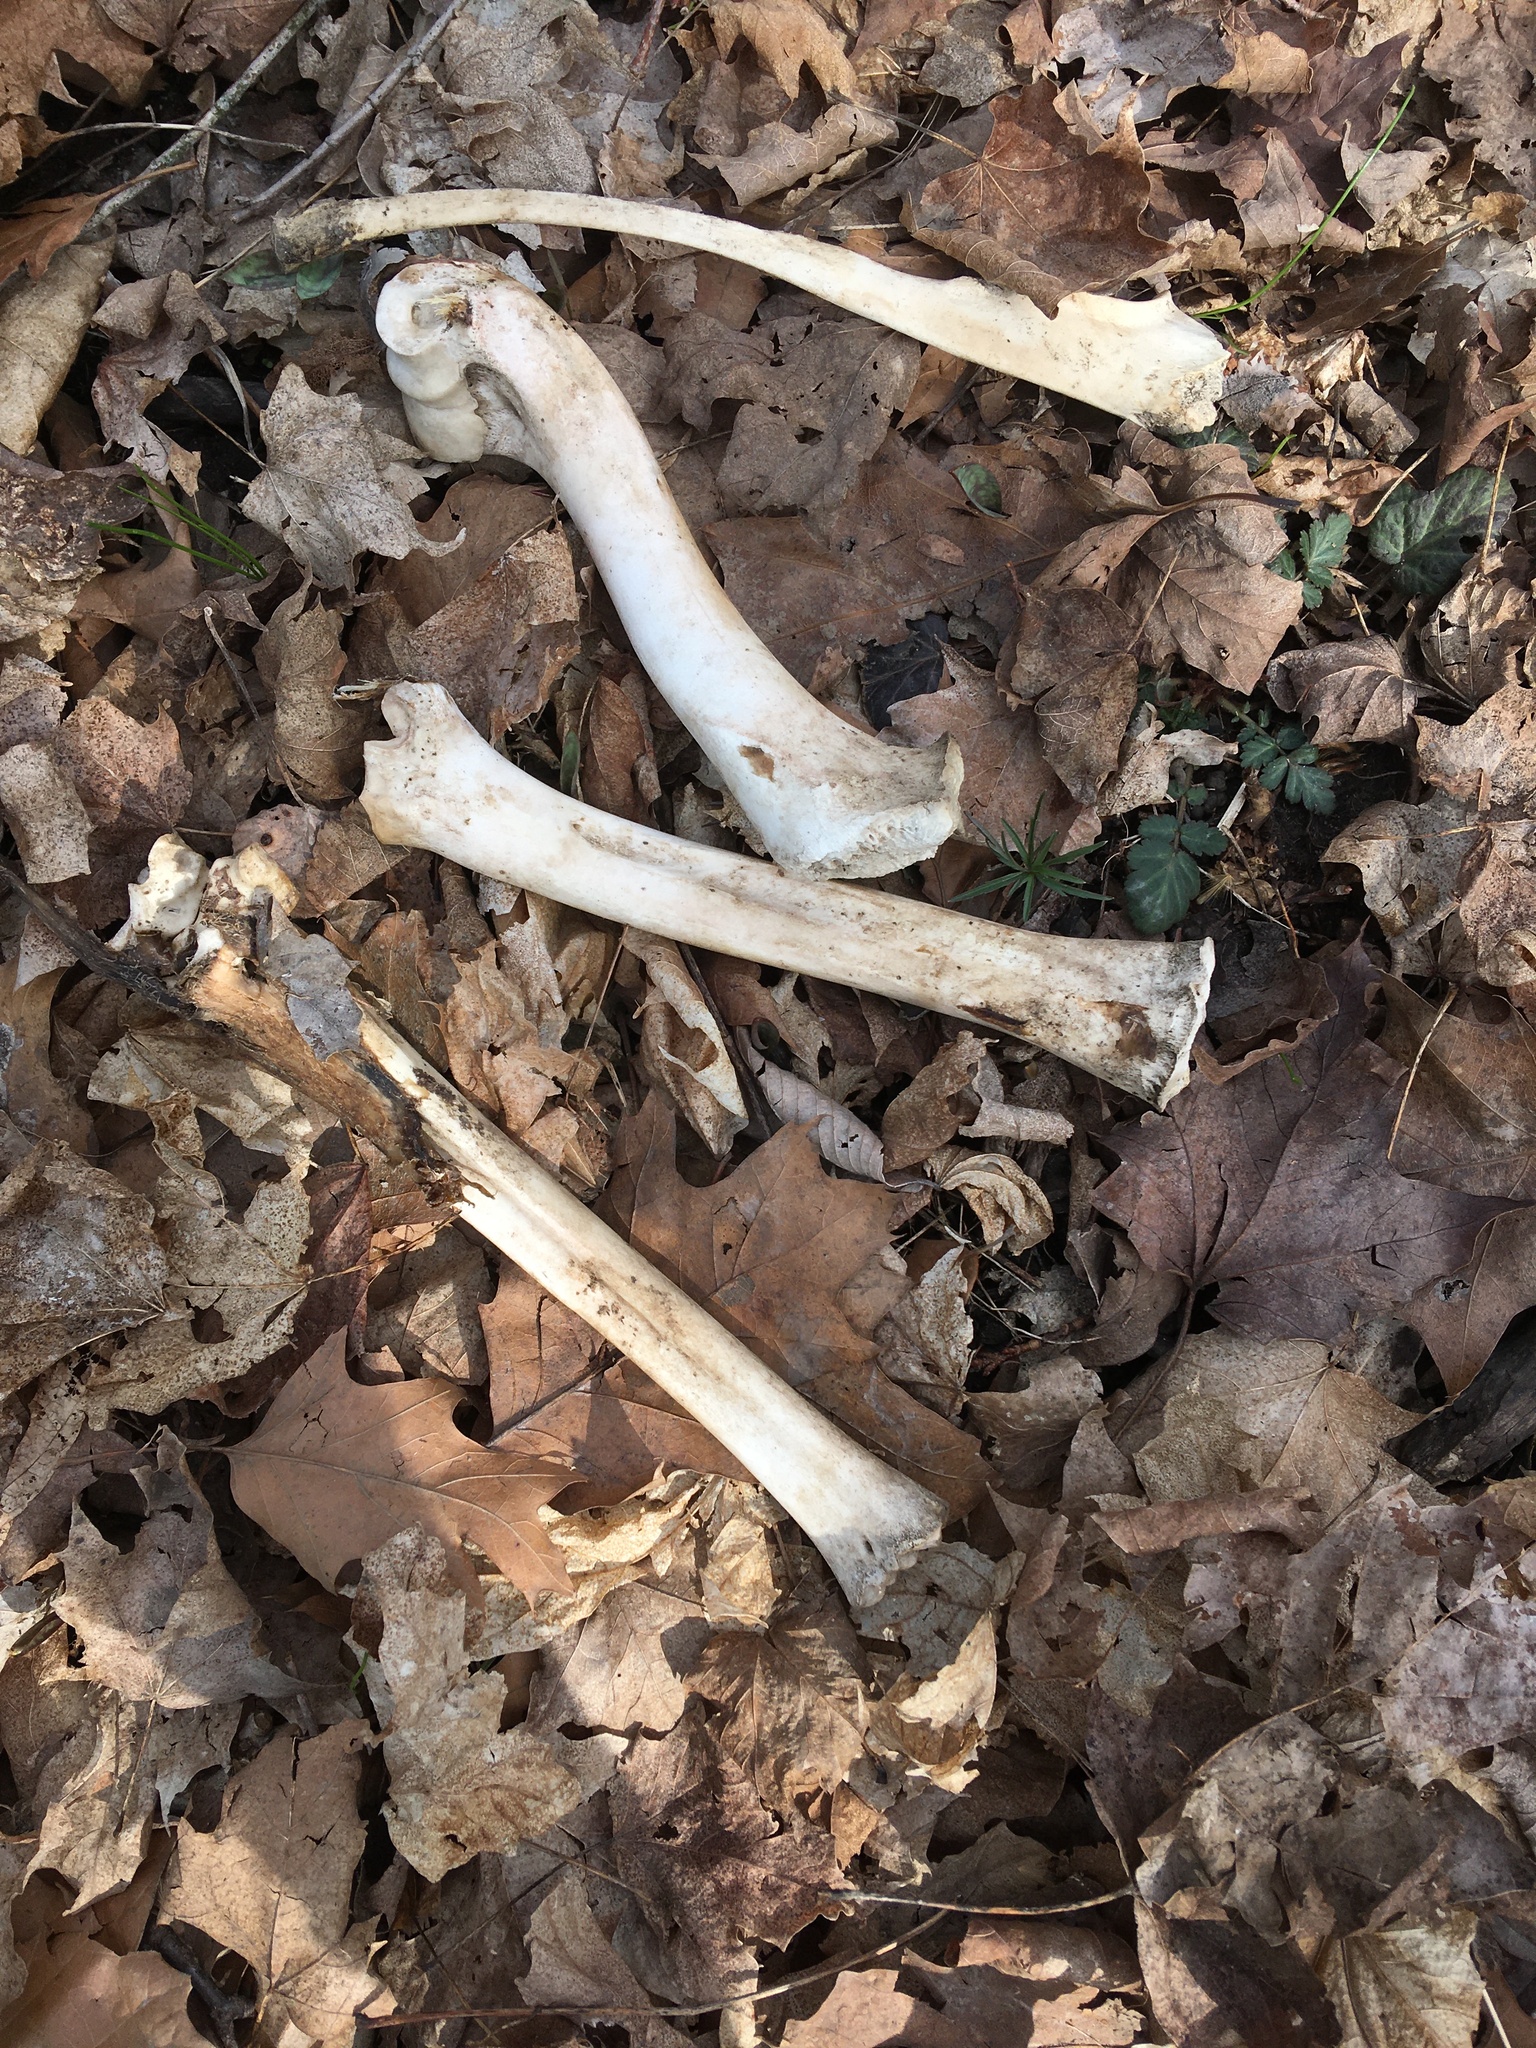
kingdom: Animalia
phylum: Chordata
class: Mammalia
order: Artiodactyla
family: Cervidae
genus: Odocoileus
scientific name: Odocoileus virginianus
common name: White-tailed deer
